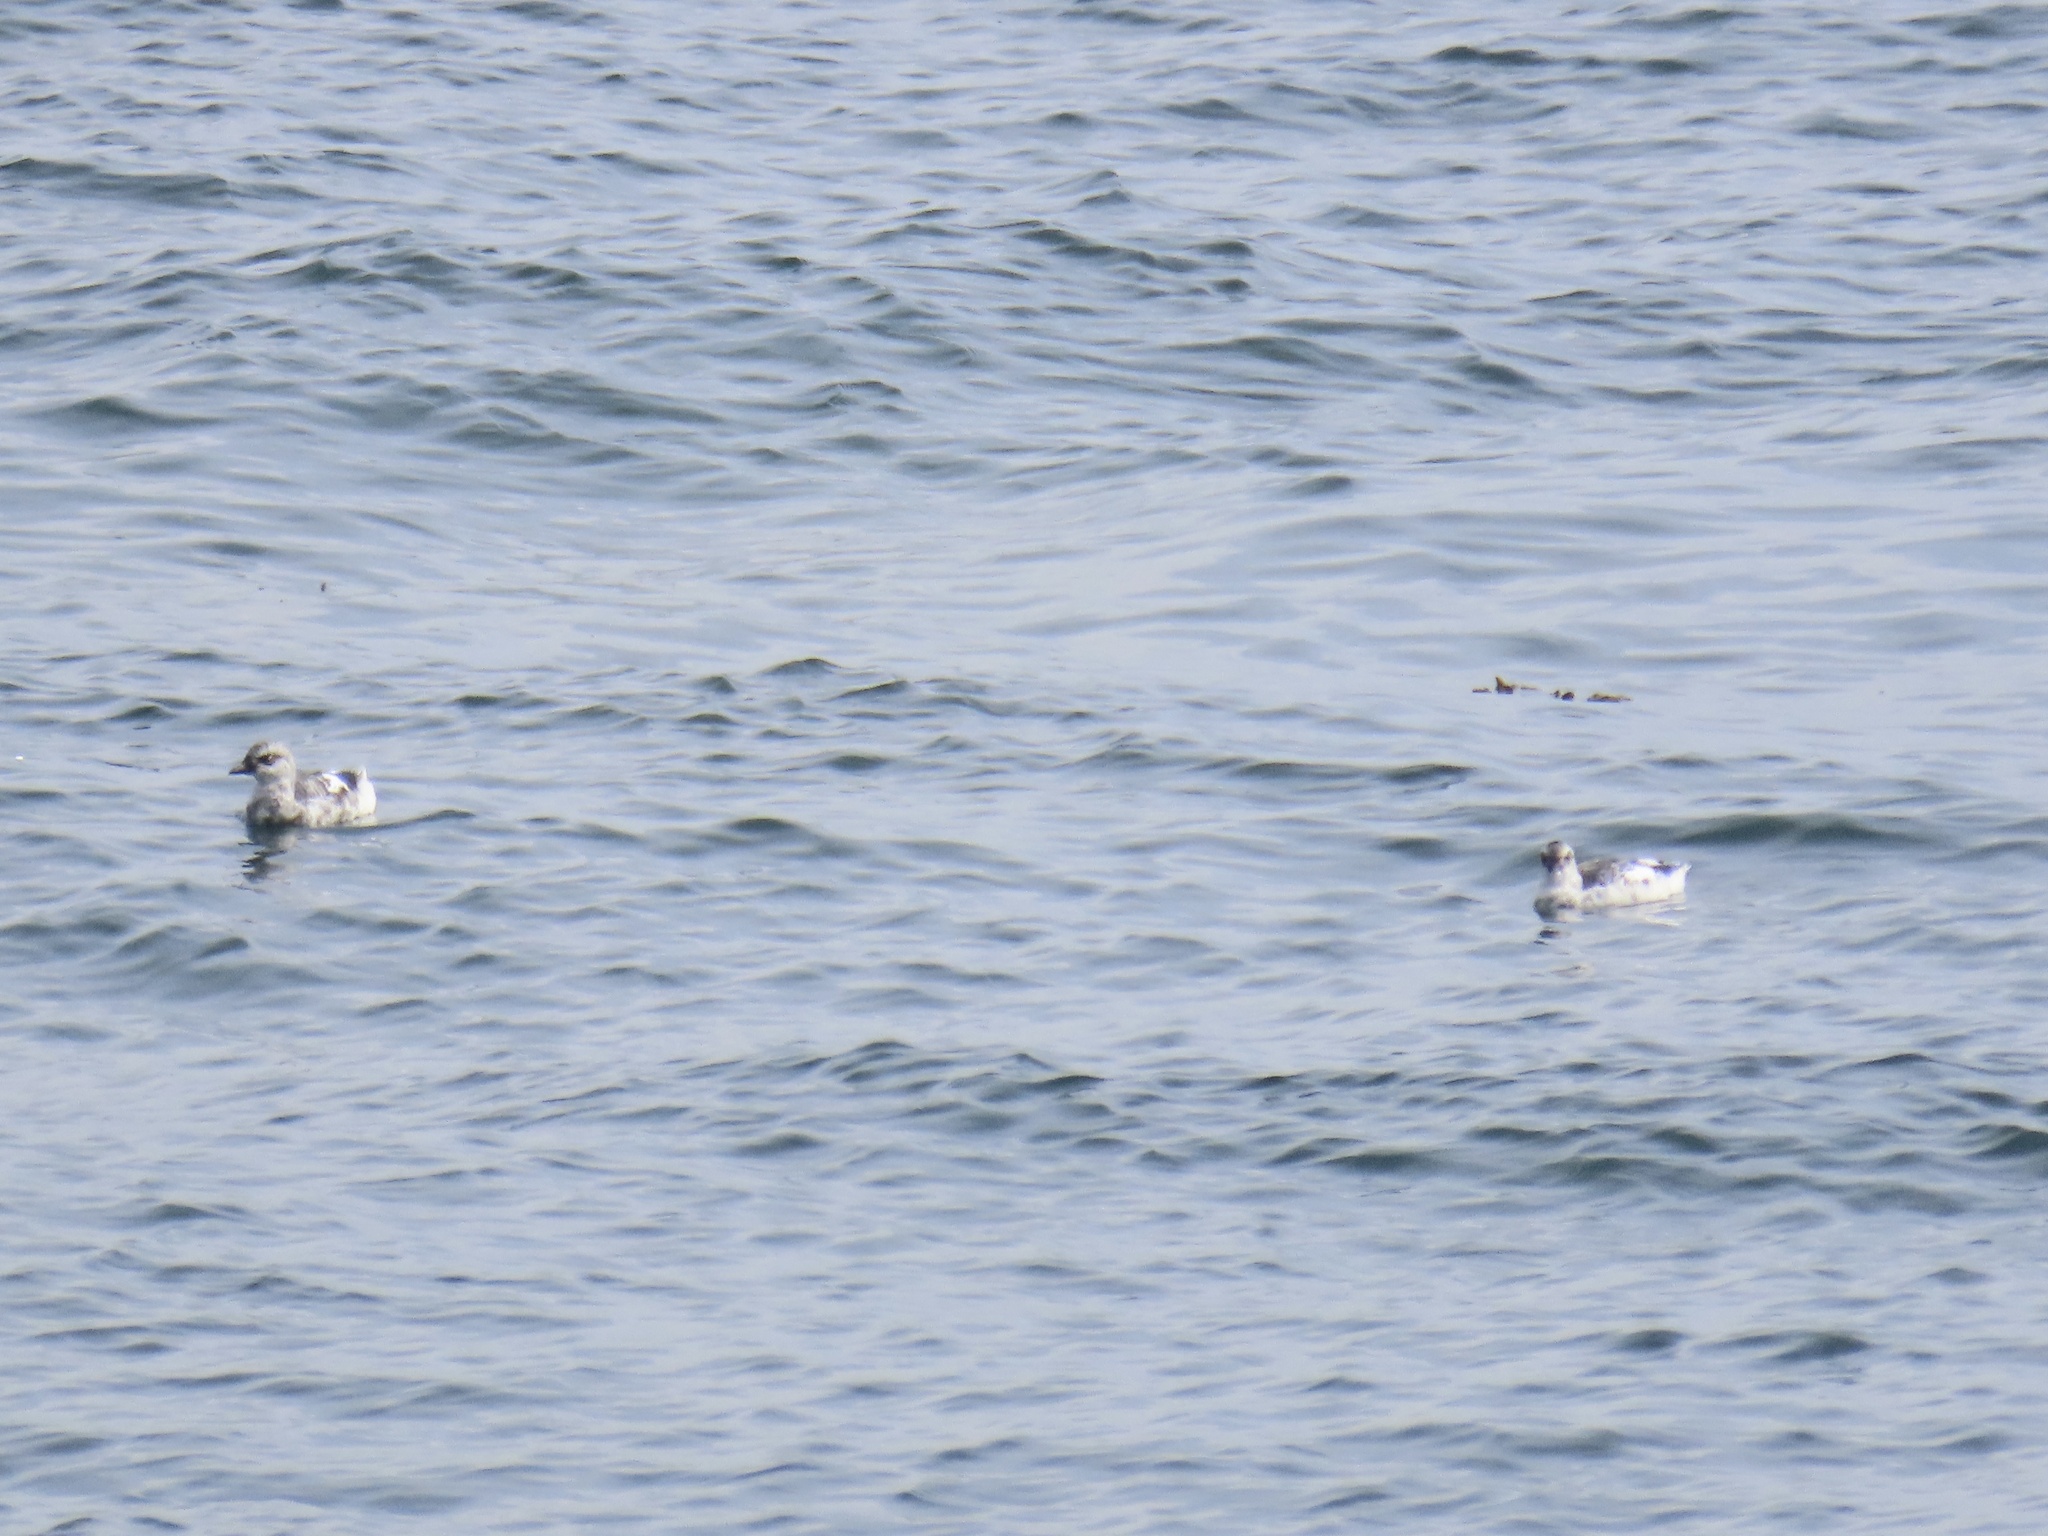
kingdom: Animalia
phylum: Chordata
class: Aves
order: Charadriiformes
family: Alcidae
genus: Cepphus
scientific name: Cepphus columba
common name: Pigeon guillemot
